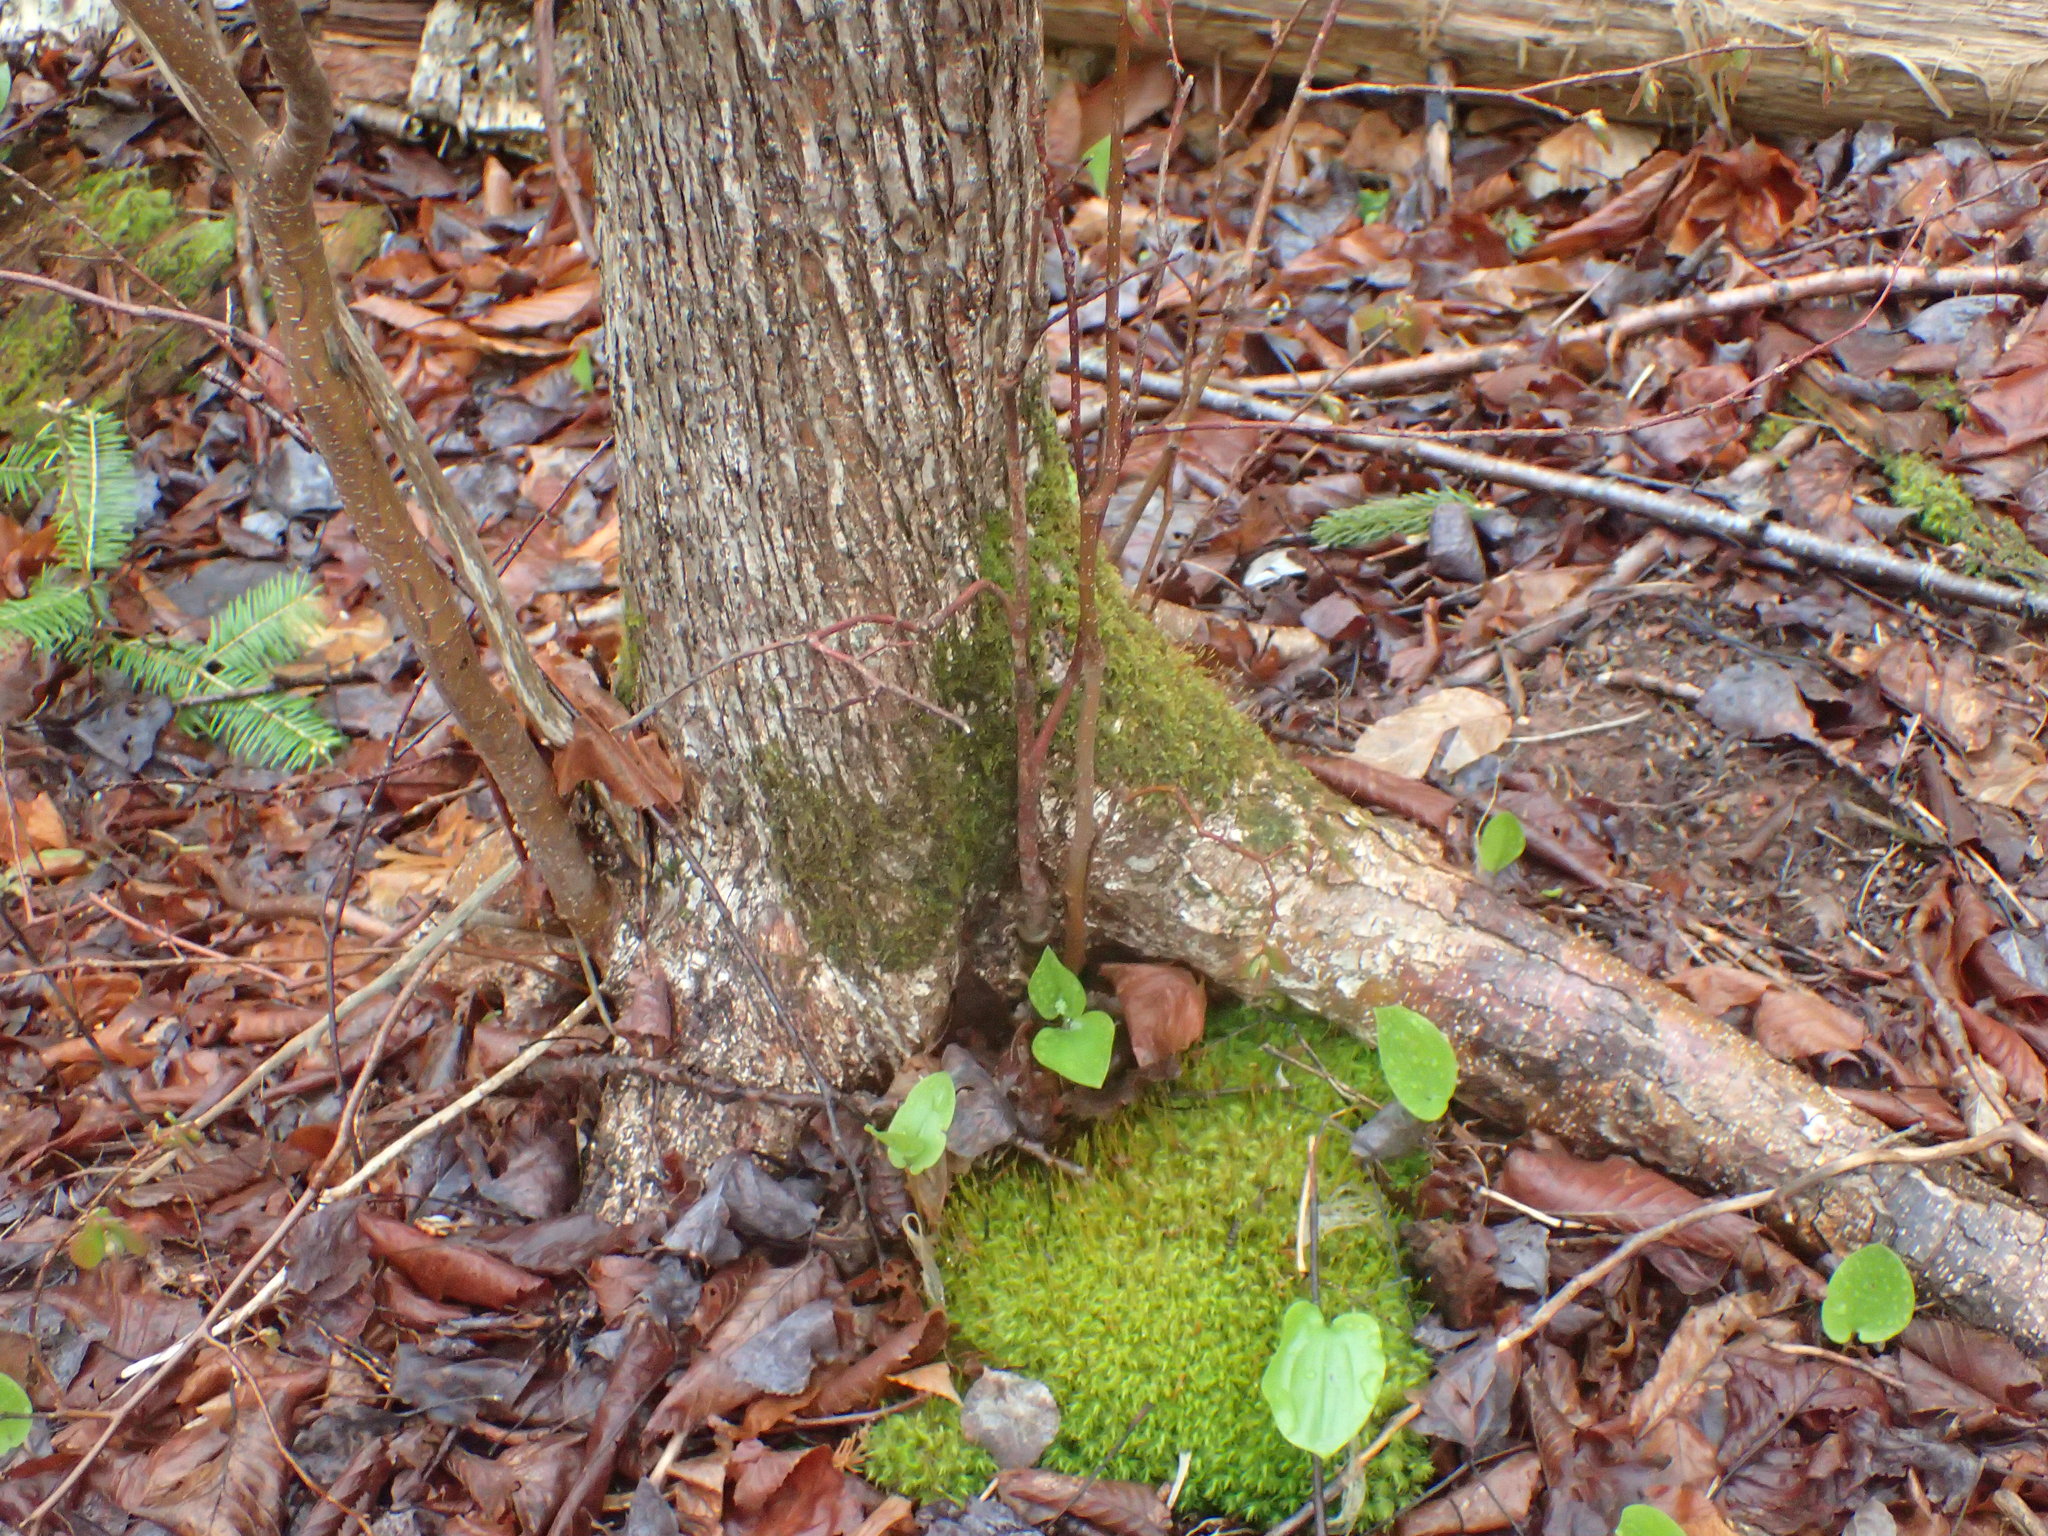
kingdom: Plantae
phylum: Tracheophyta
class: Magnoliopsida
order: Fagales
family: Betulaceae
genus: Ostrya
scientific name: Ostrya virginiana
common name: Ironwood
